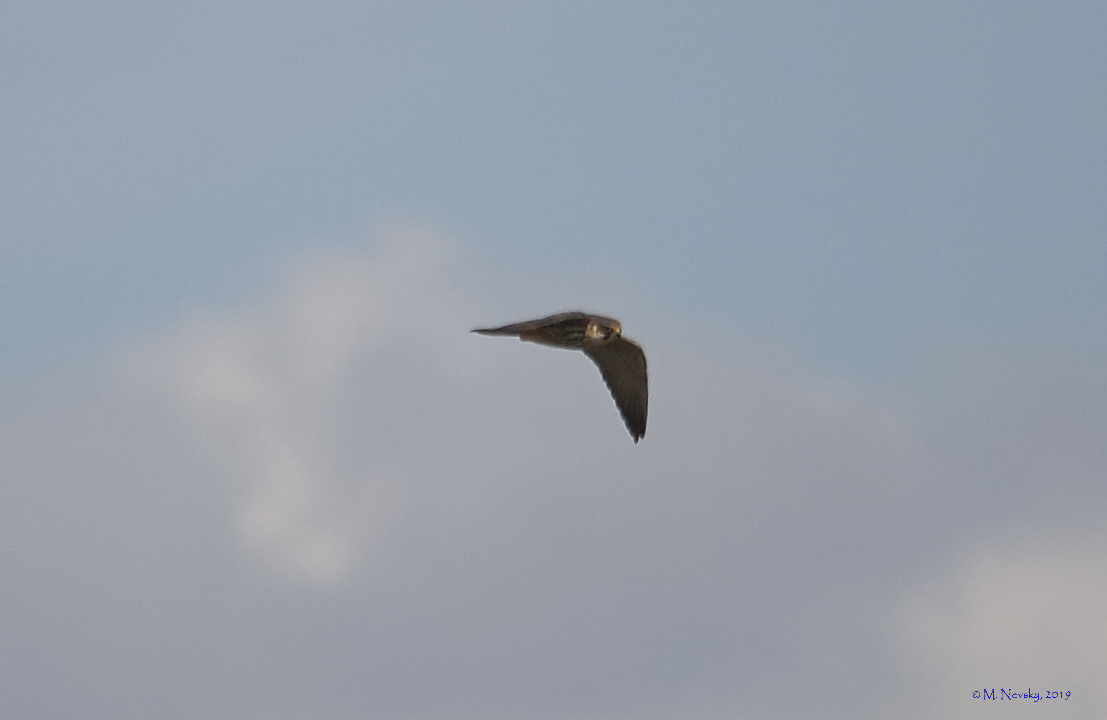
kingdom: Animalia
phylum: Chordata
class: Aves
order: Falconiformes
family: Falconidae
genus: Falco
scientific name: Falco subbuteo
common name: Eurasian hobby
